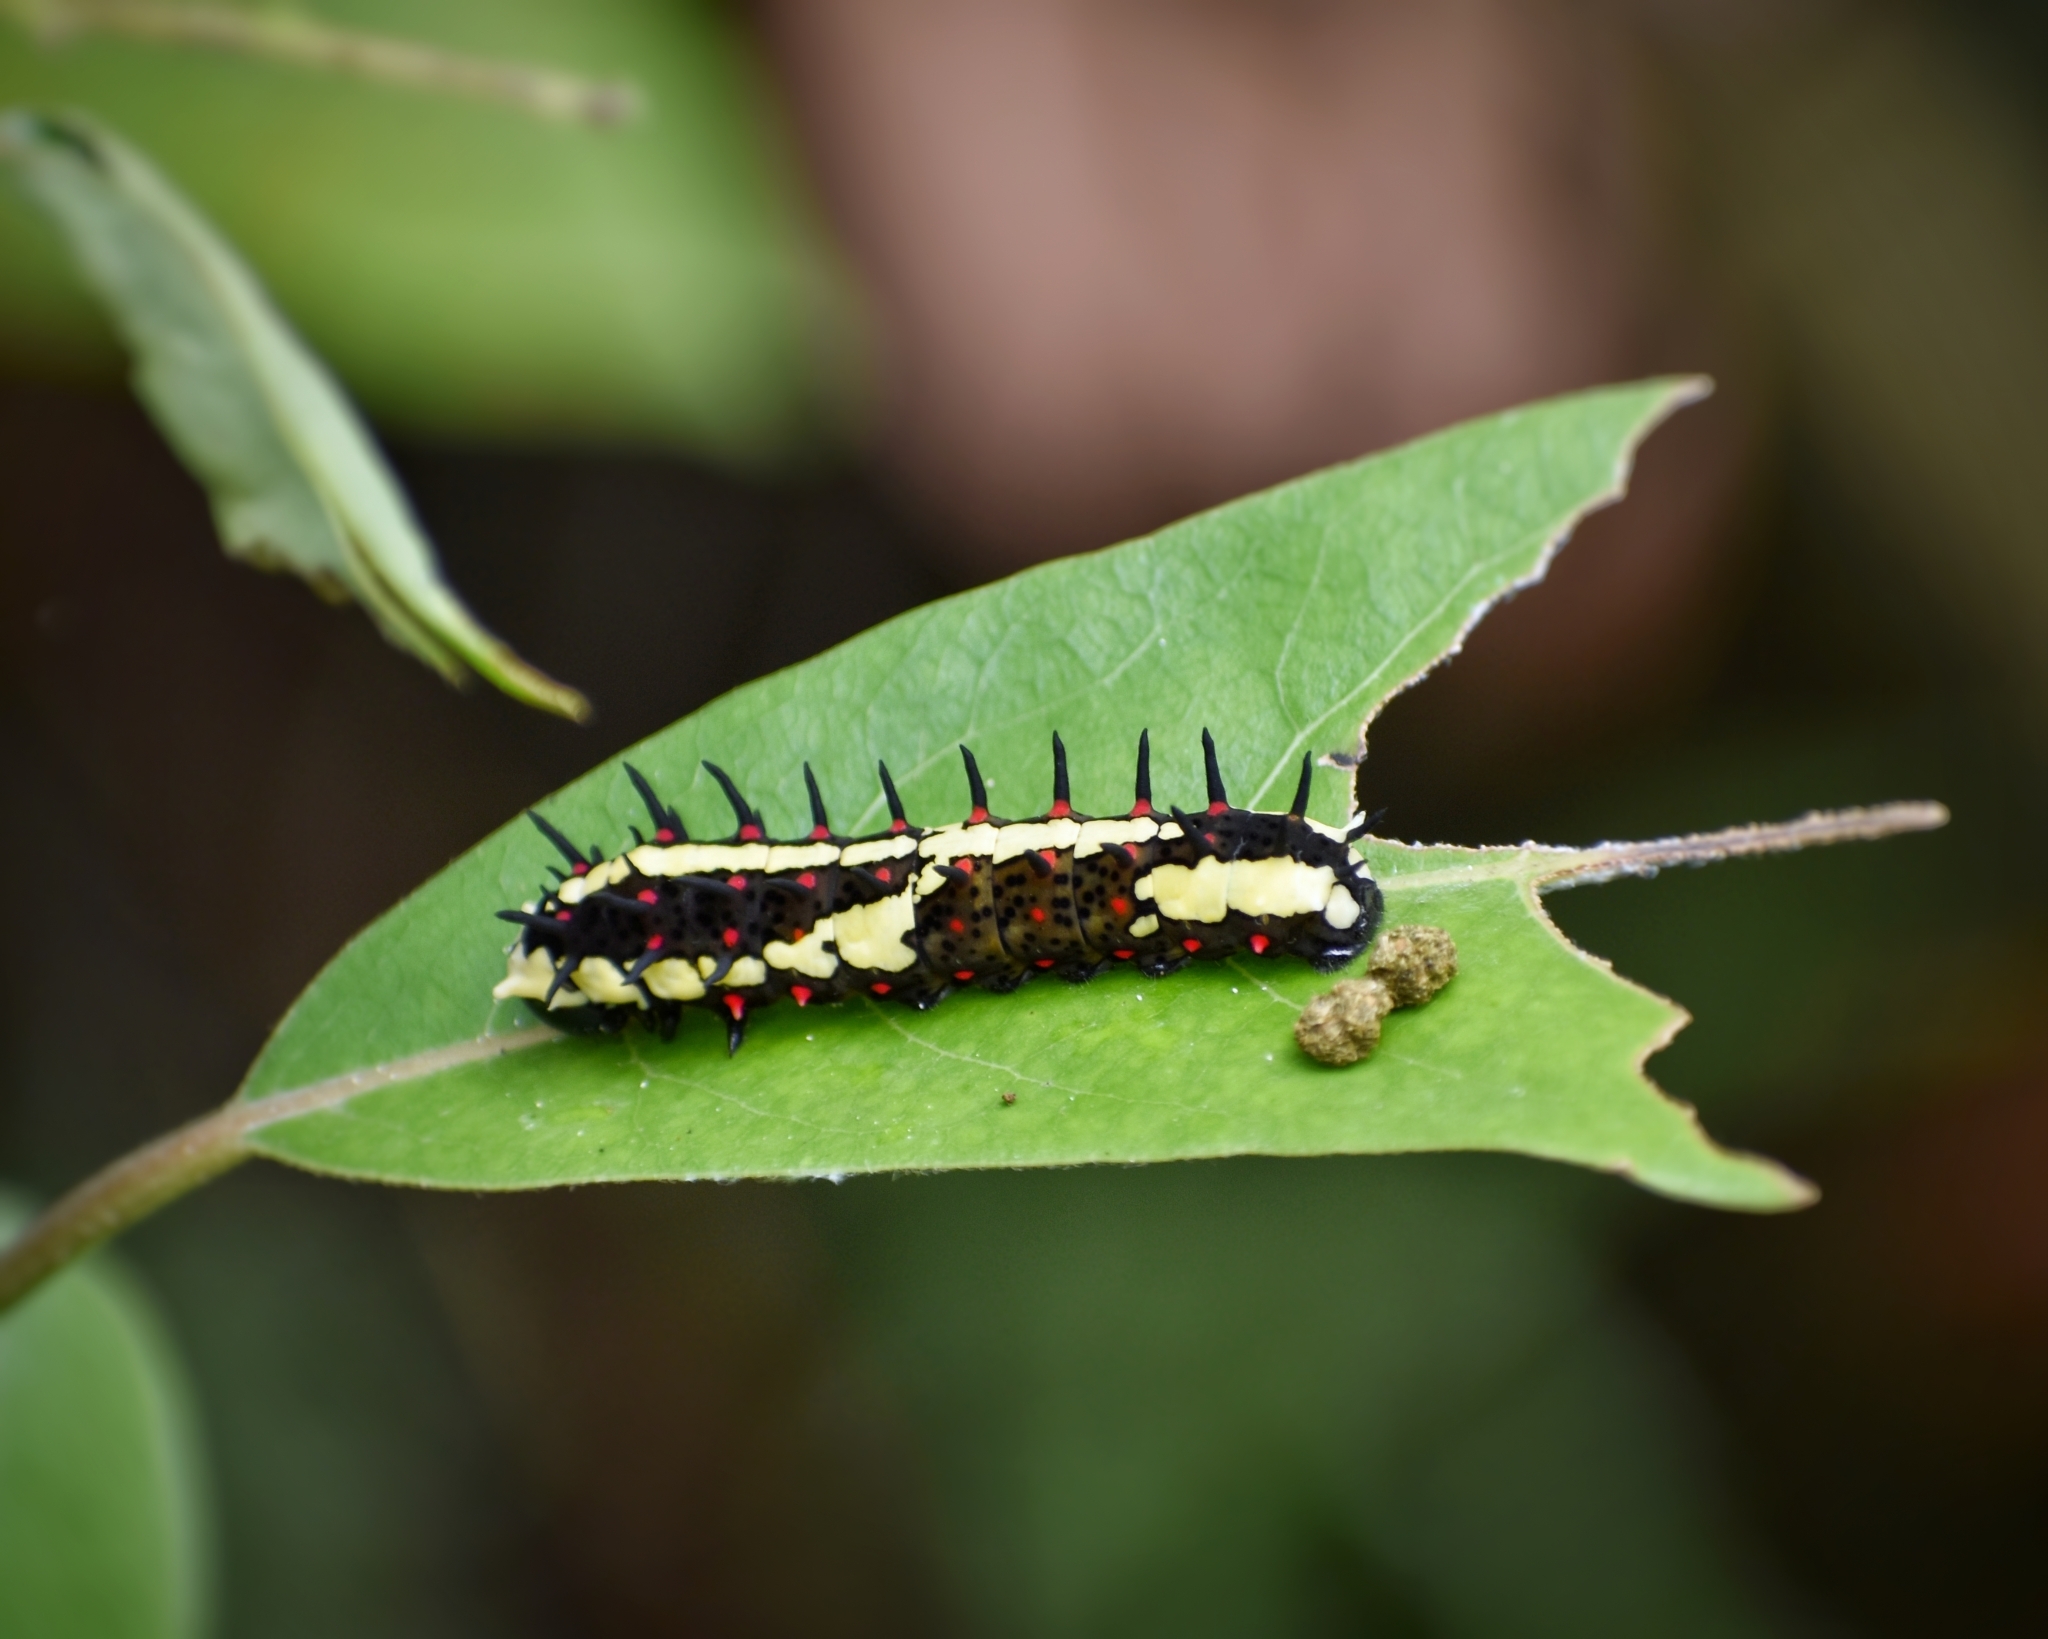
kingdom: Animalia
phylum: Arthropoda
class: Insecta
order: Lepidoptera
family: Papilionidae
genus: Chilasa
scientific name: Chilasa clytia
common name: Common mime
